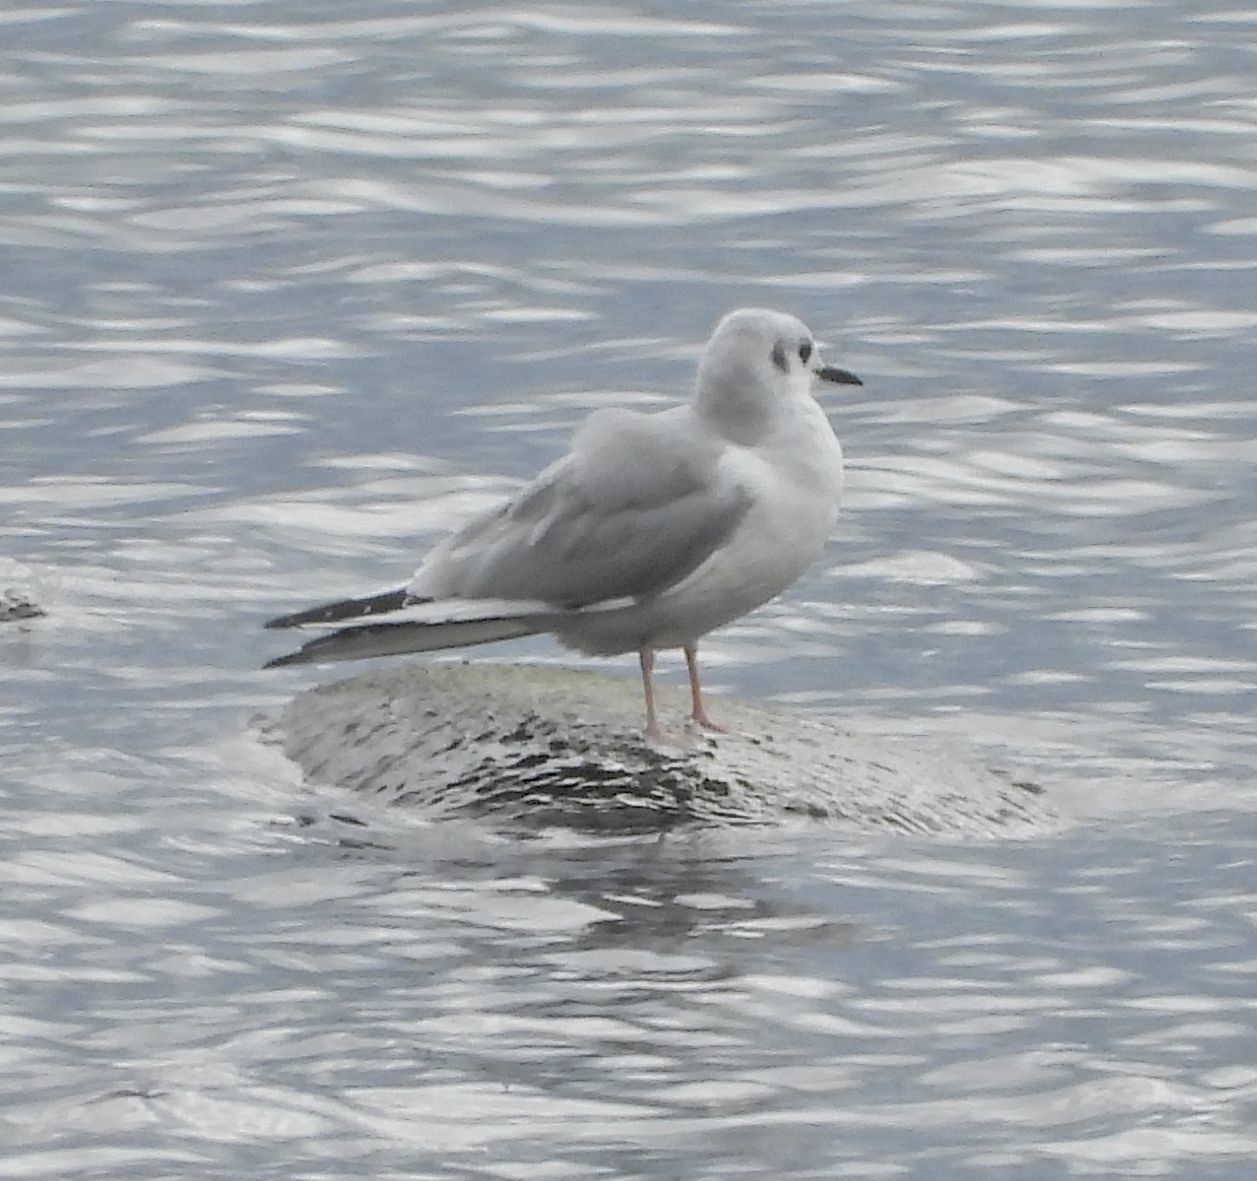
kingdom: Animalia
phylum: Chordata
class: Aves
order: Charadriiformes
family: Laridae
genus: Chroicocephalus
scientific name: Chroicocephalus philadelphia
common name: Bonaparte's gull
